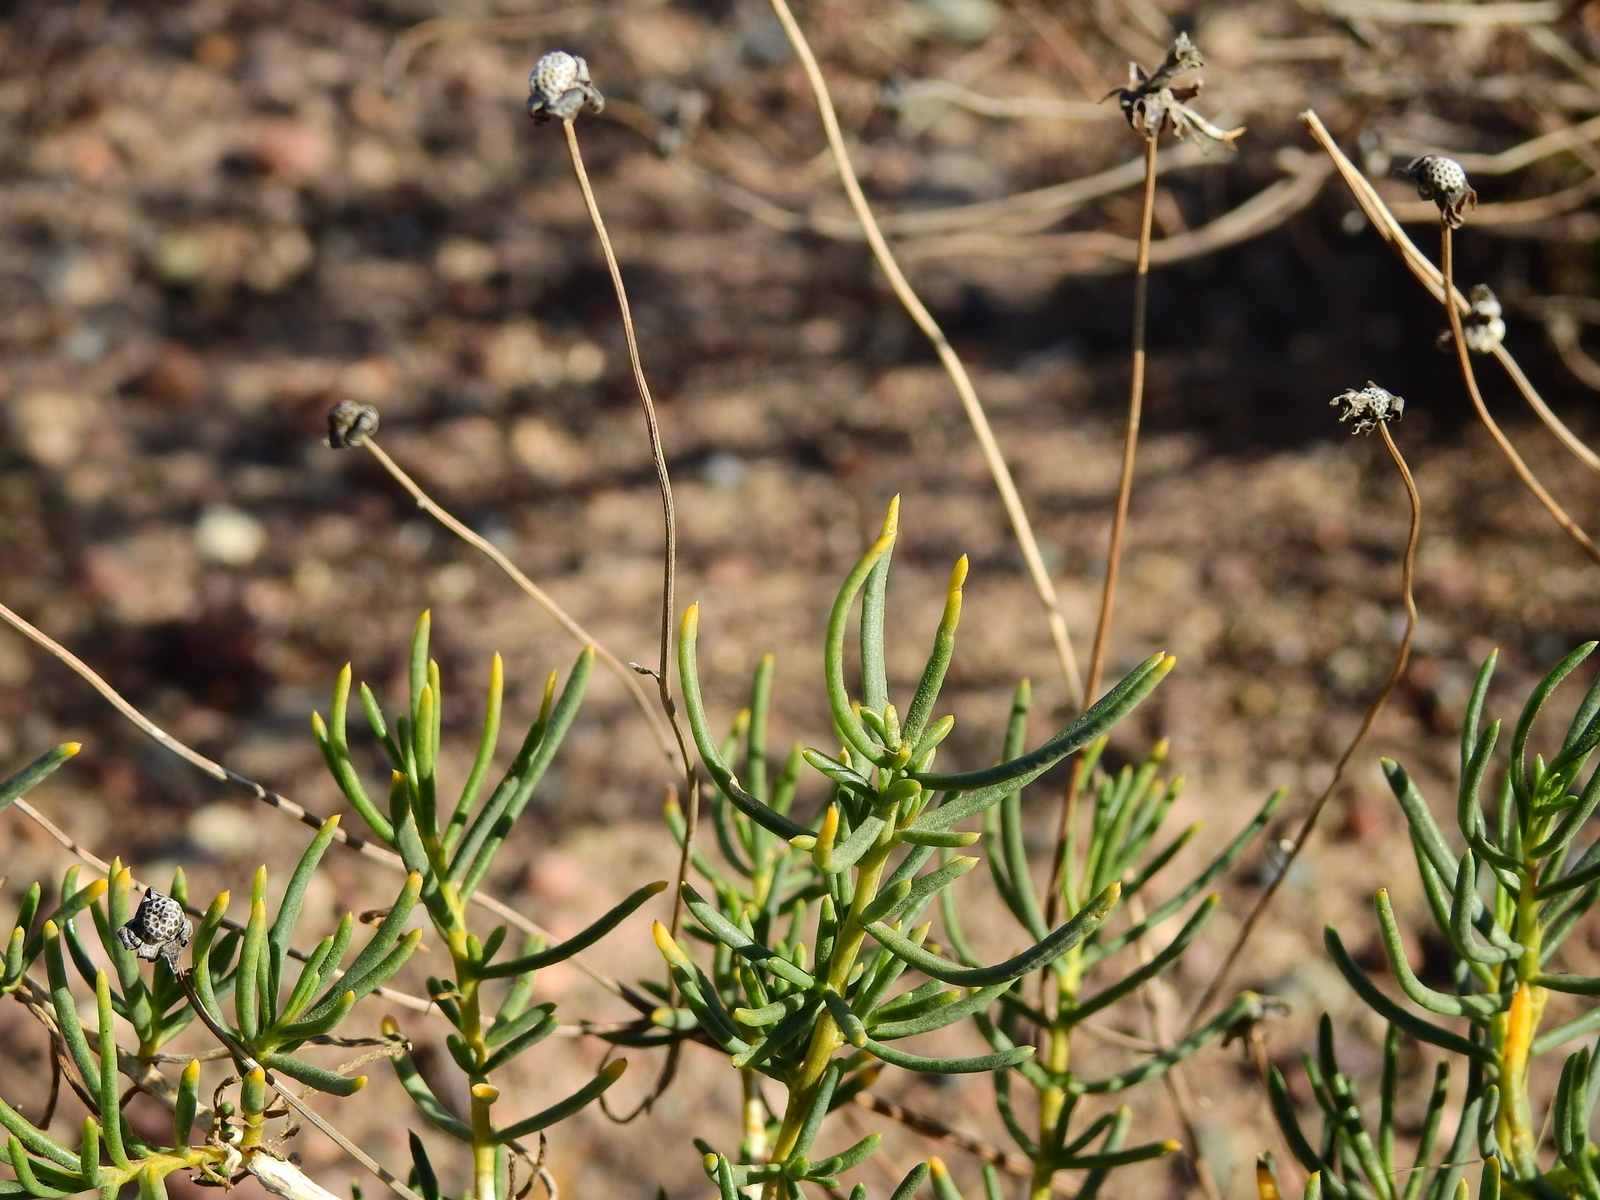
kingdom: Plantae
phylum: Tracheophyta
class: Magnoliopsida
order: Asterales
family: Asteraceae
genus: Senecio
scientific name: Senecio subulatus
